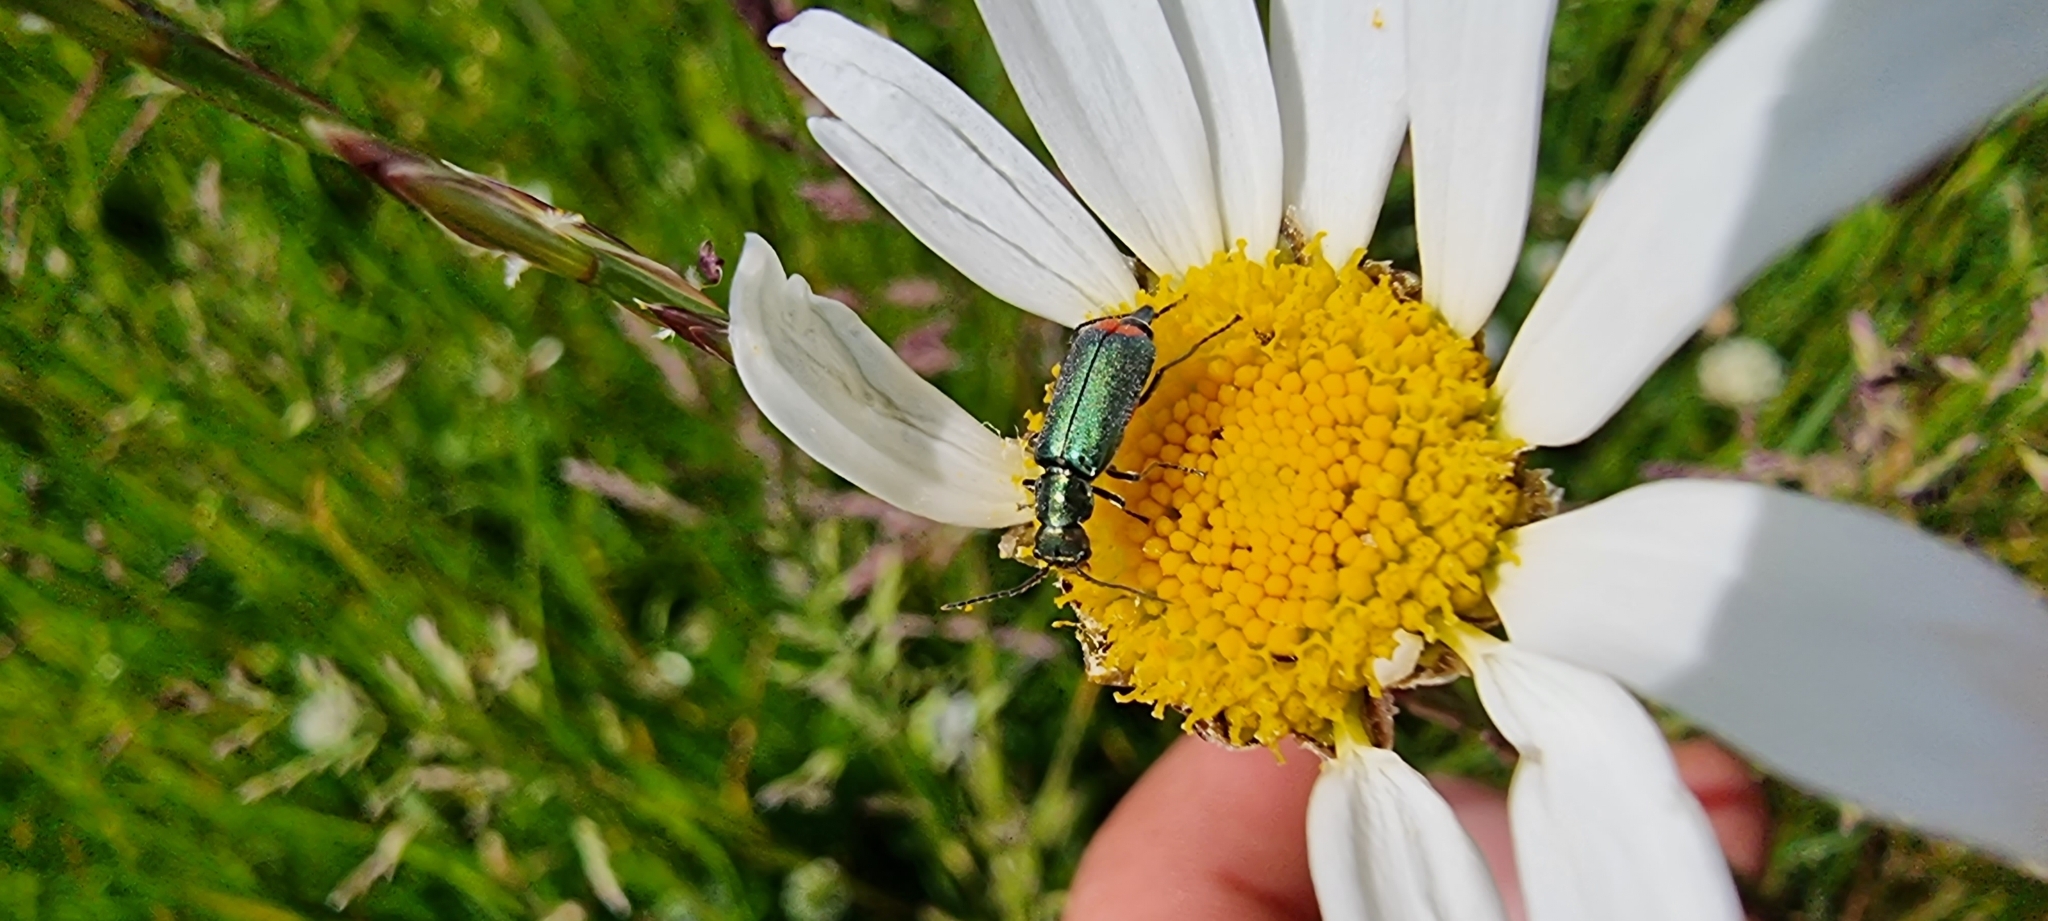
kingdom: Animalia
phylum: Arthropoda
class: Insecta
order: Coleoptera
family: Melyridae
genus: Malachius
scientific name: Malachius bipustulatus
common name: Malachite beetle
